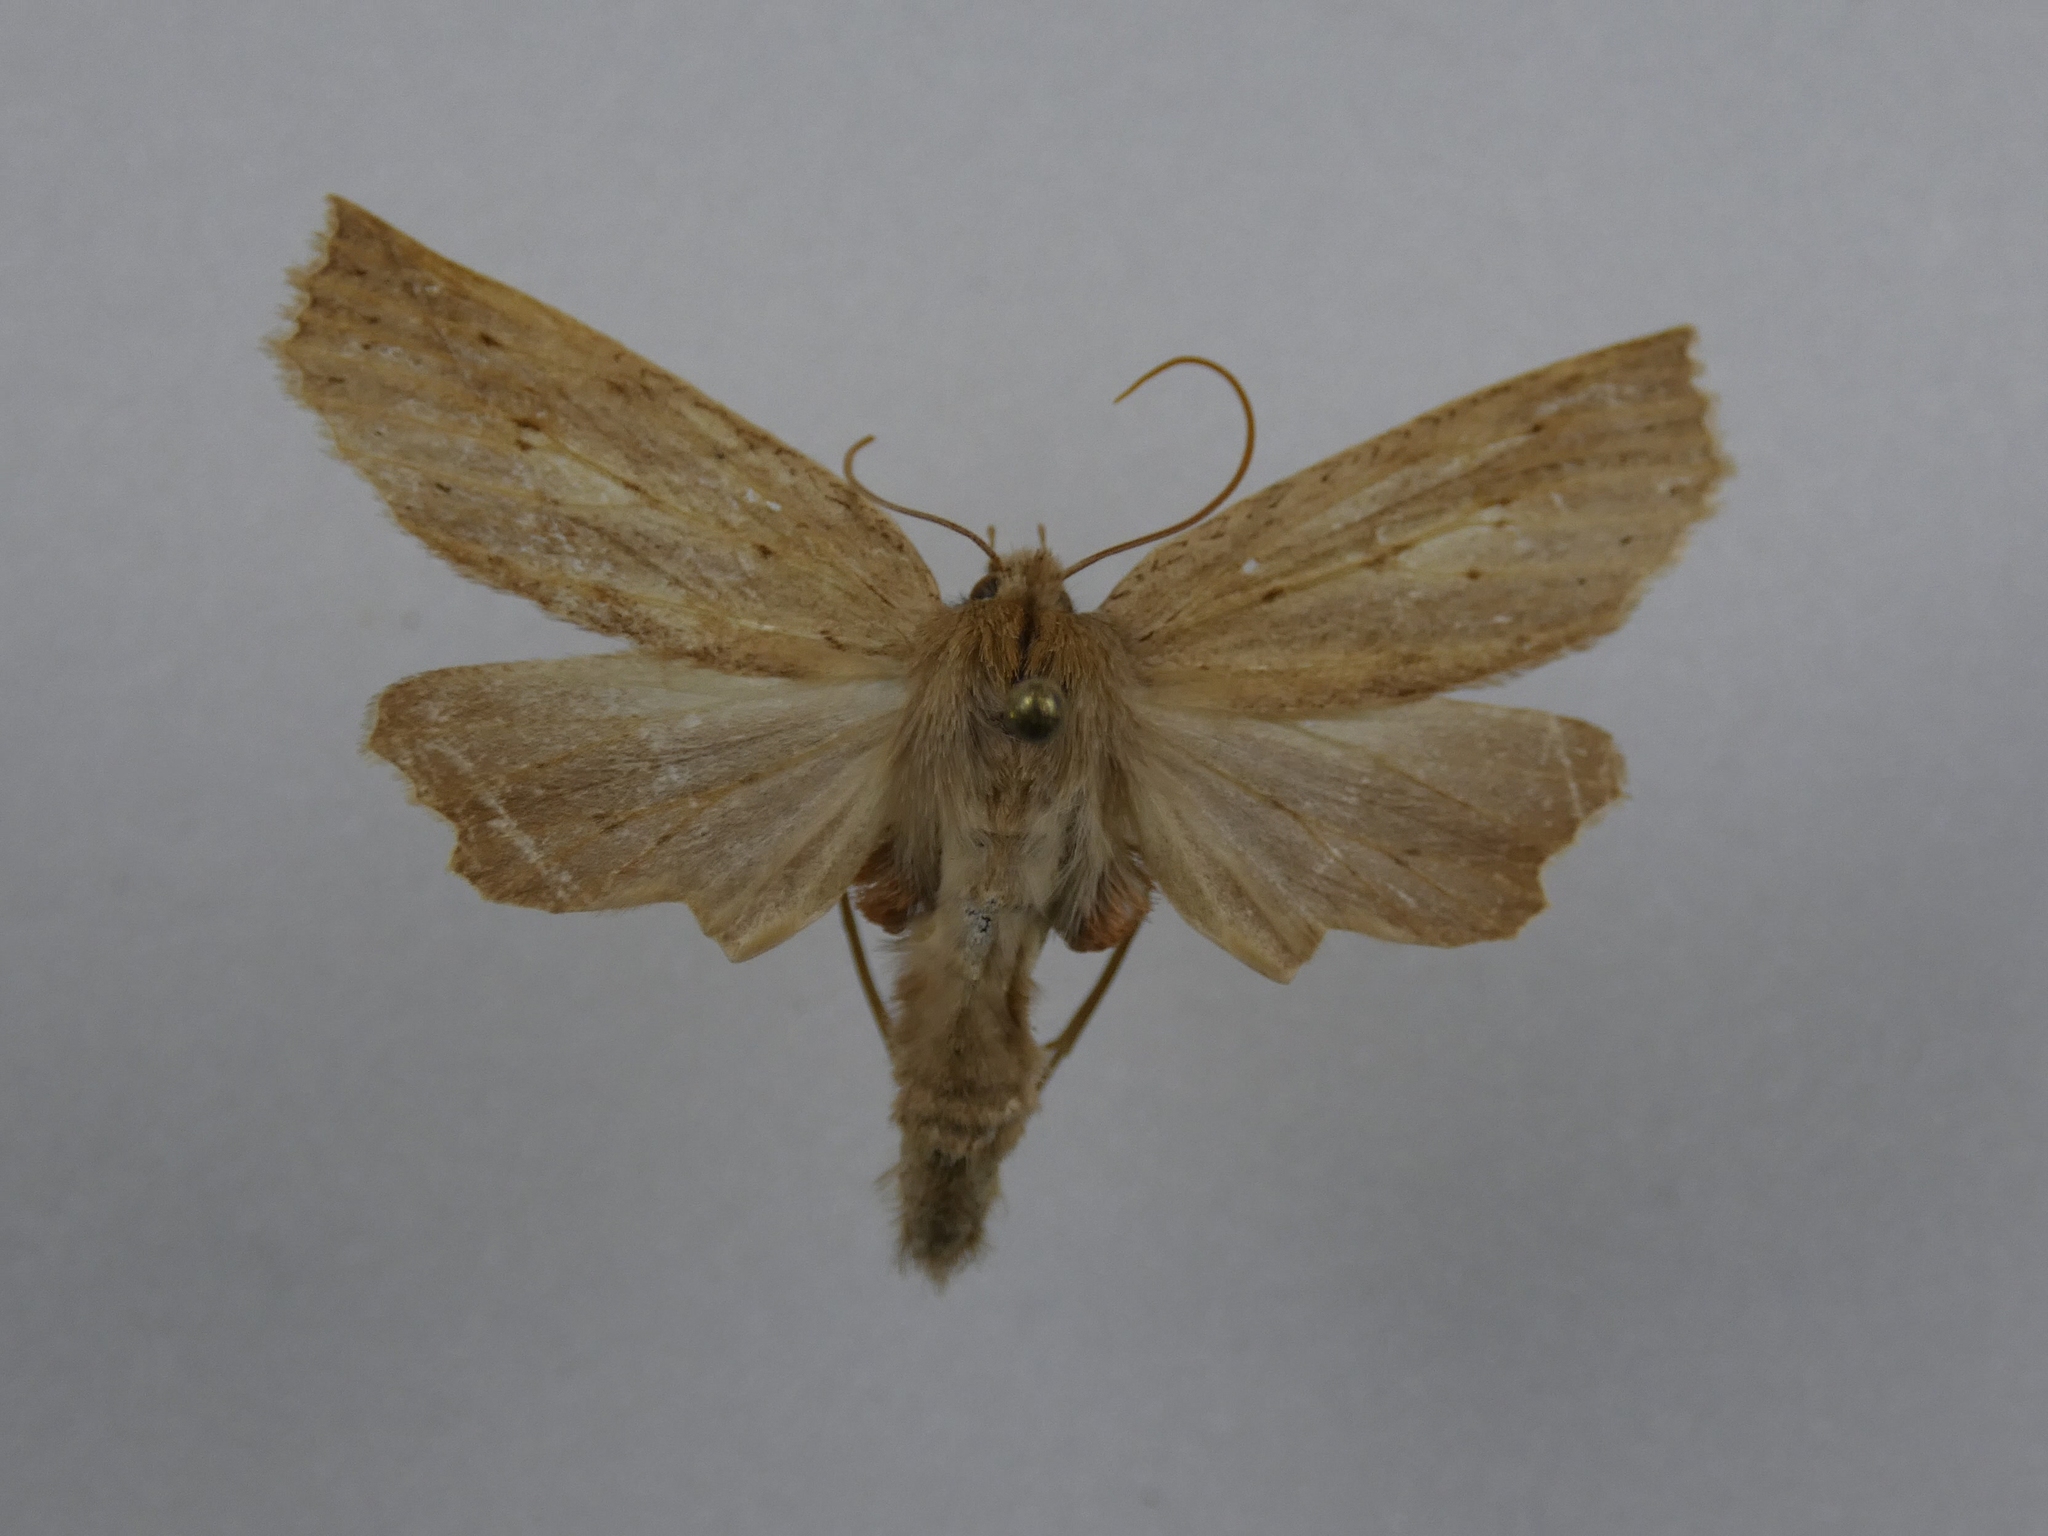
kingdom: Animalia
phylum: Arthropoda
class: Insecta
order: Lepidoptera
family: Geometridae
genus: Declana
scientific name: Declana leptomera
